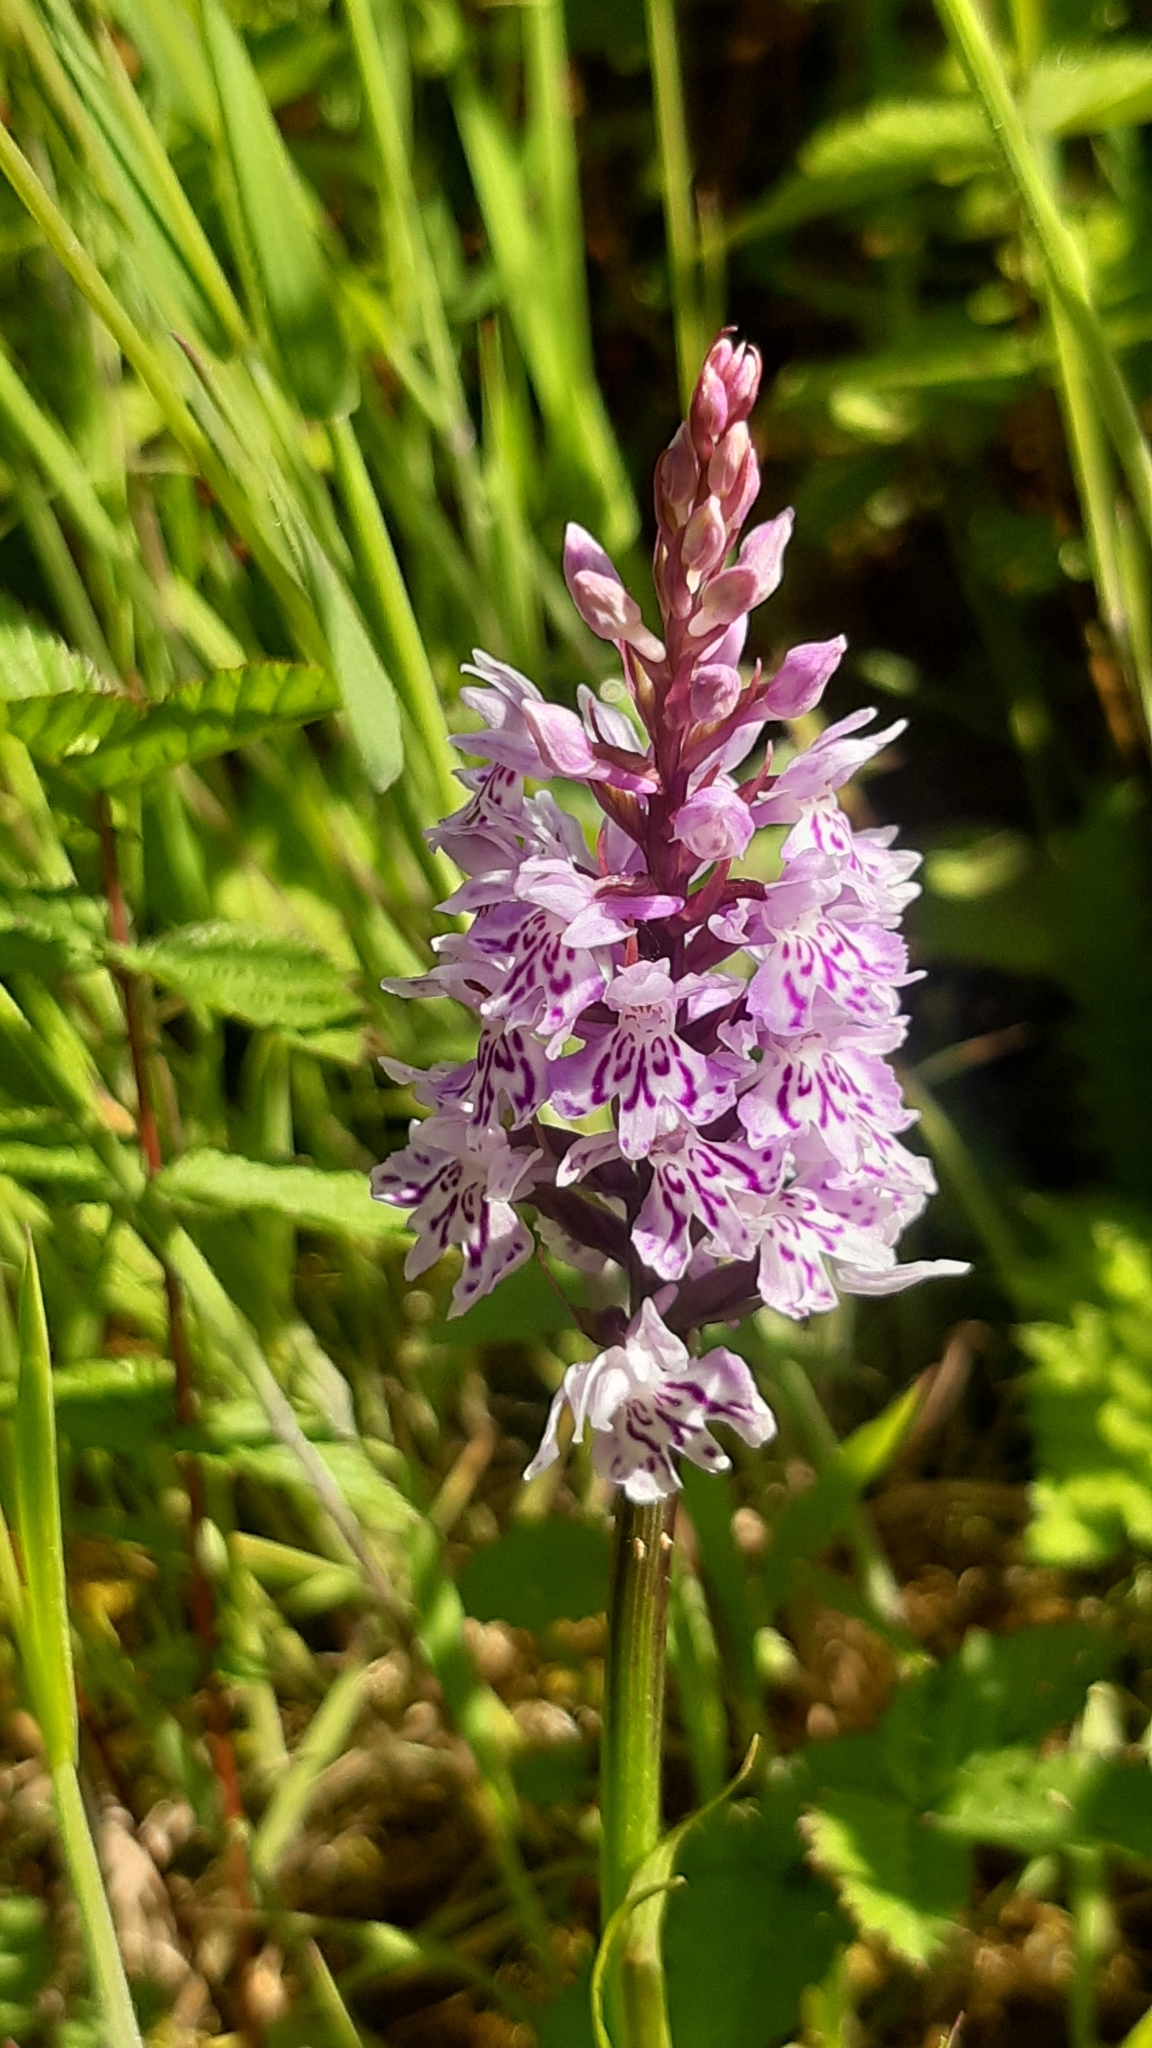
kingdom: Plantae
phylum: Tracheophyta
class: Liliopsida
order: Asparagales
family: Orchidaceae
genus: Dactylorhiza
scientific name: Dactylorhiza maculata
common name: Heath spotted-orchid
